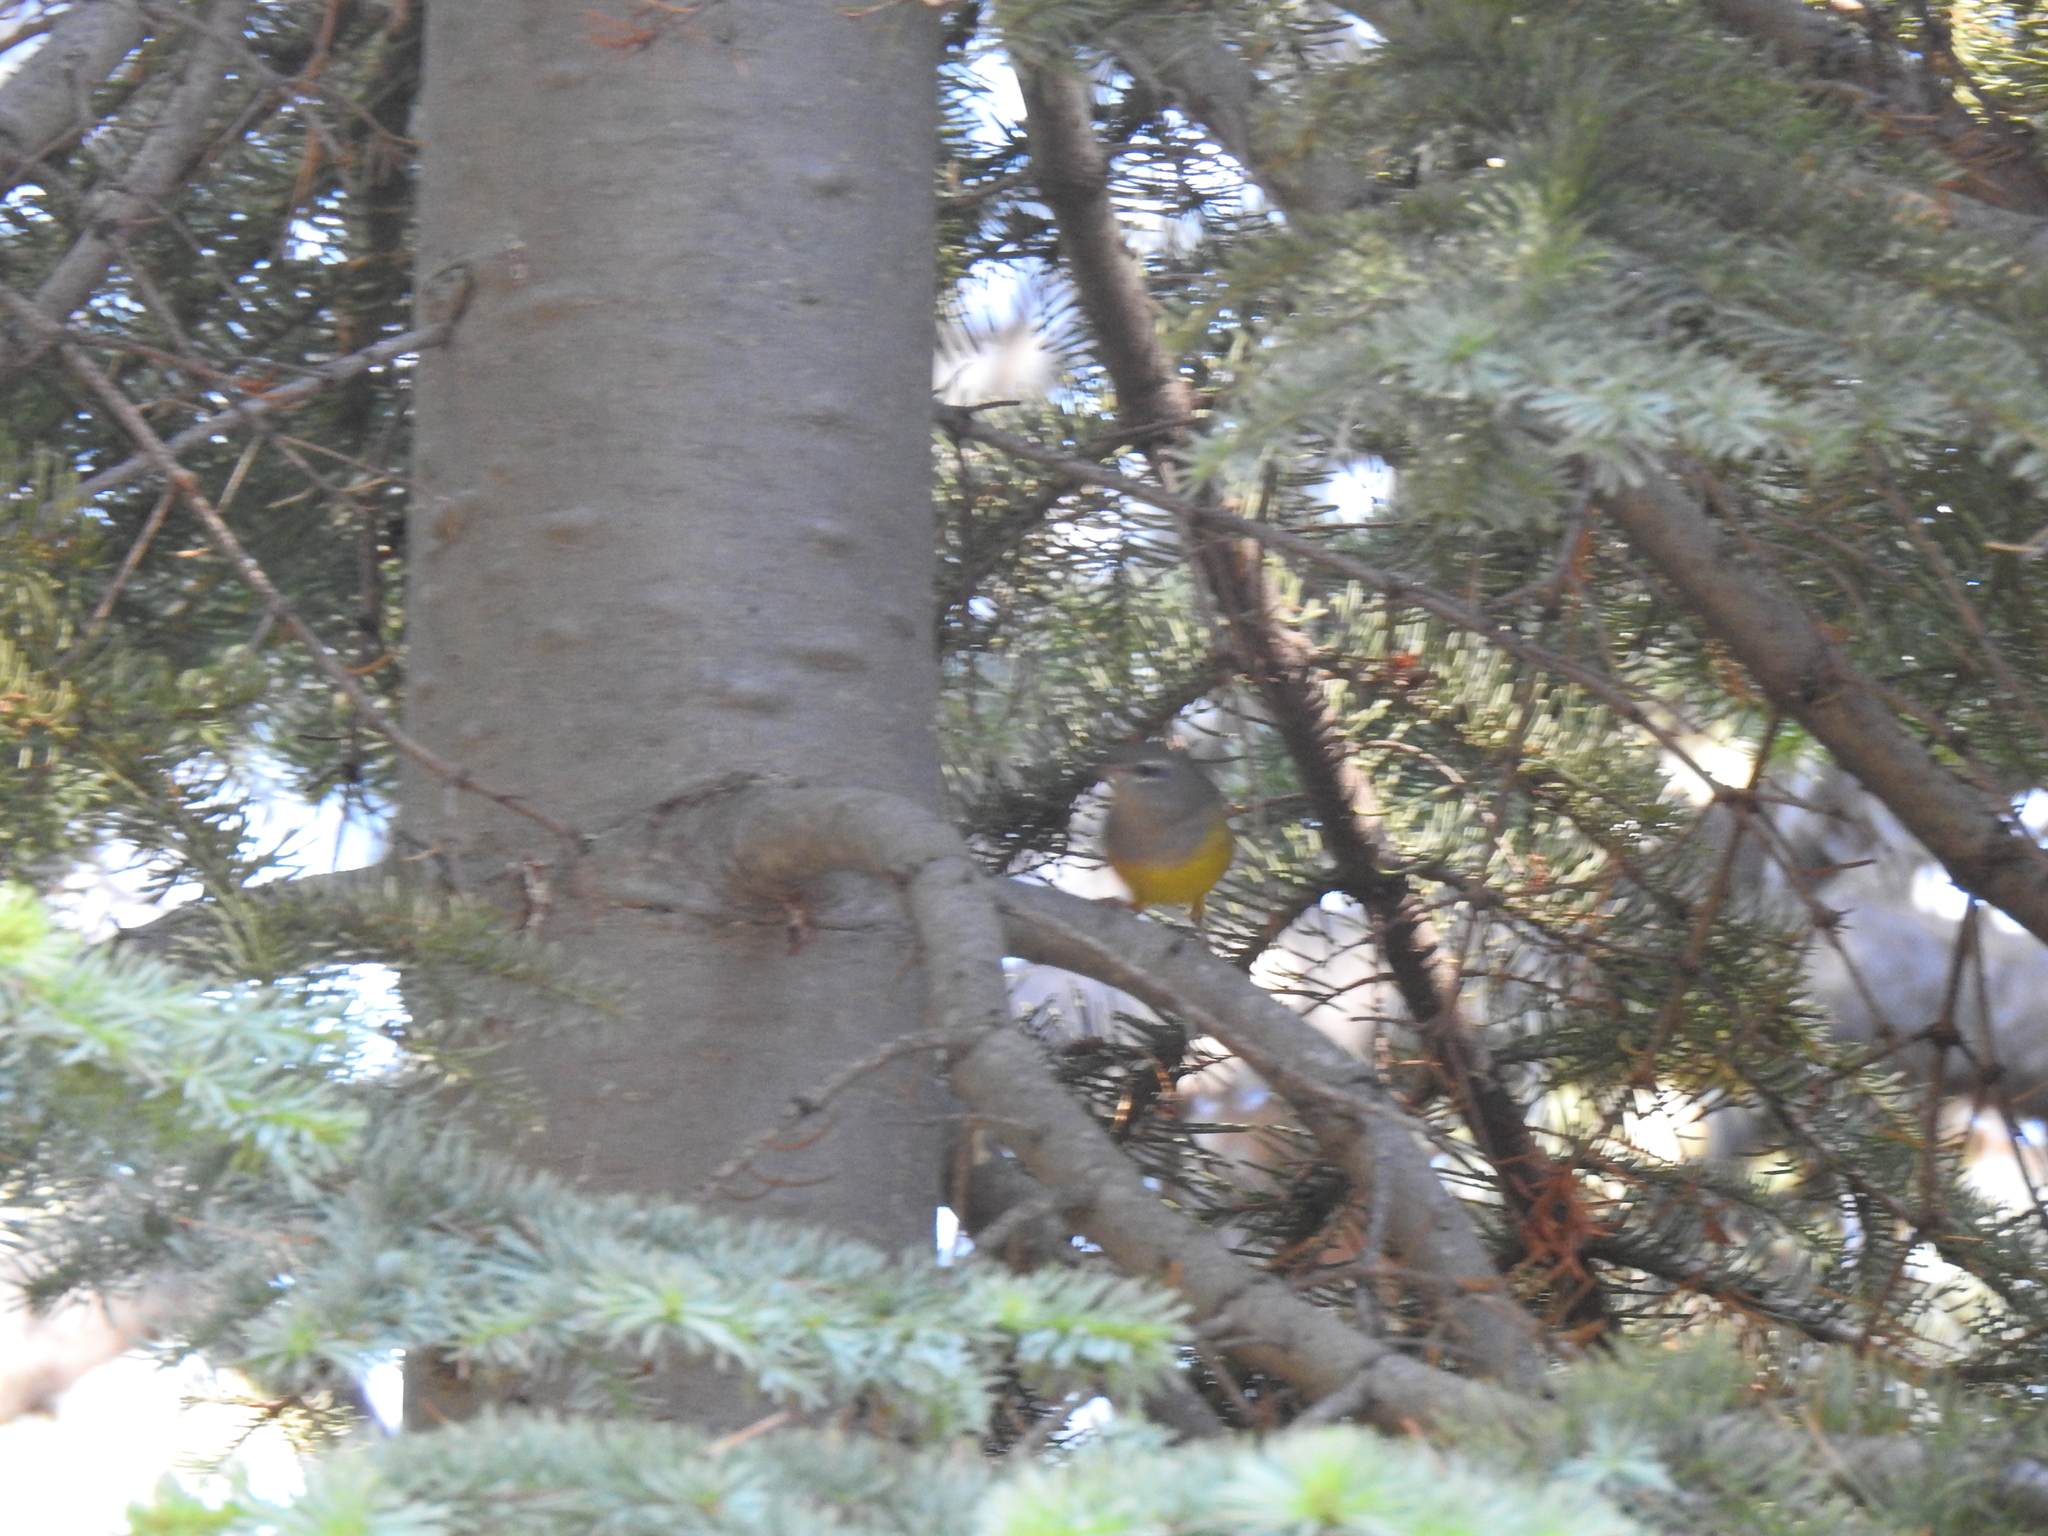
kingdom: Animalia
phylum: Chordata
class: Aves
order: Passeriformes
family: Parulidae
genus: Geothlypis
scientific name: Geothlypis tolmiei
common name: Macgillivray's warbler
